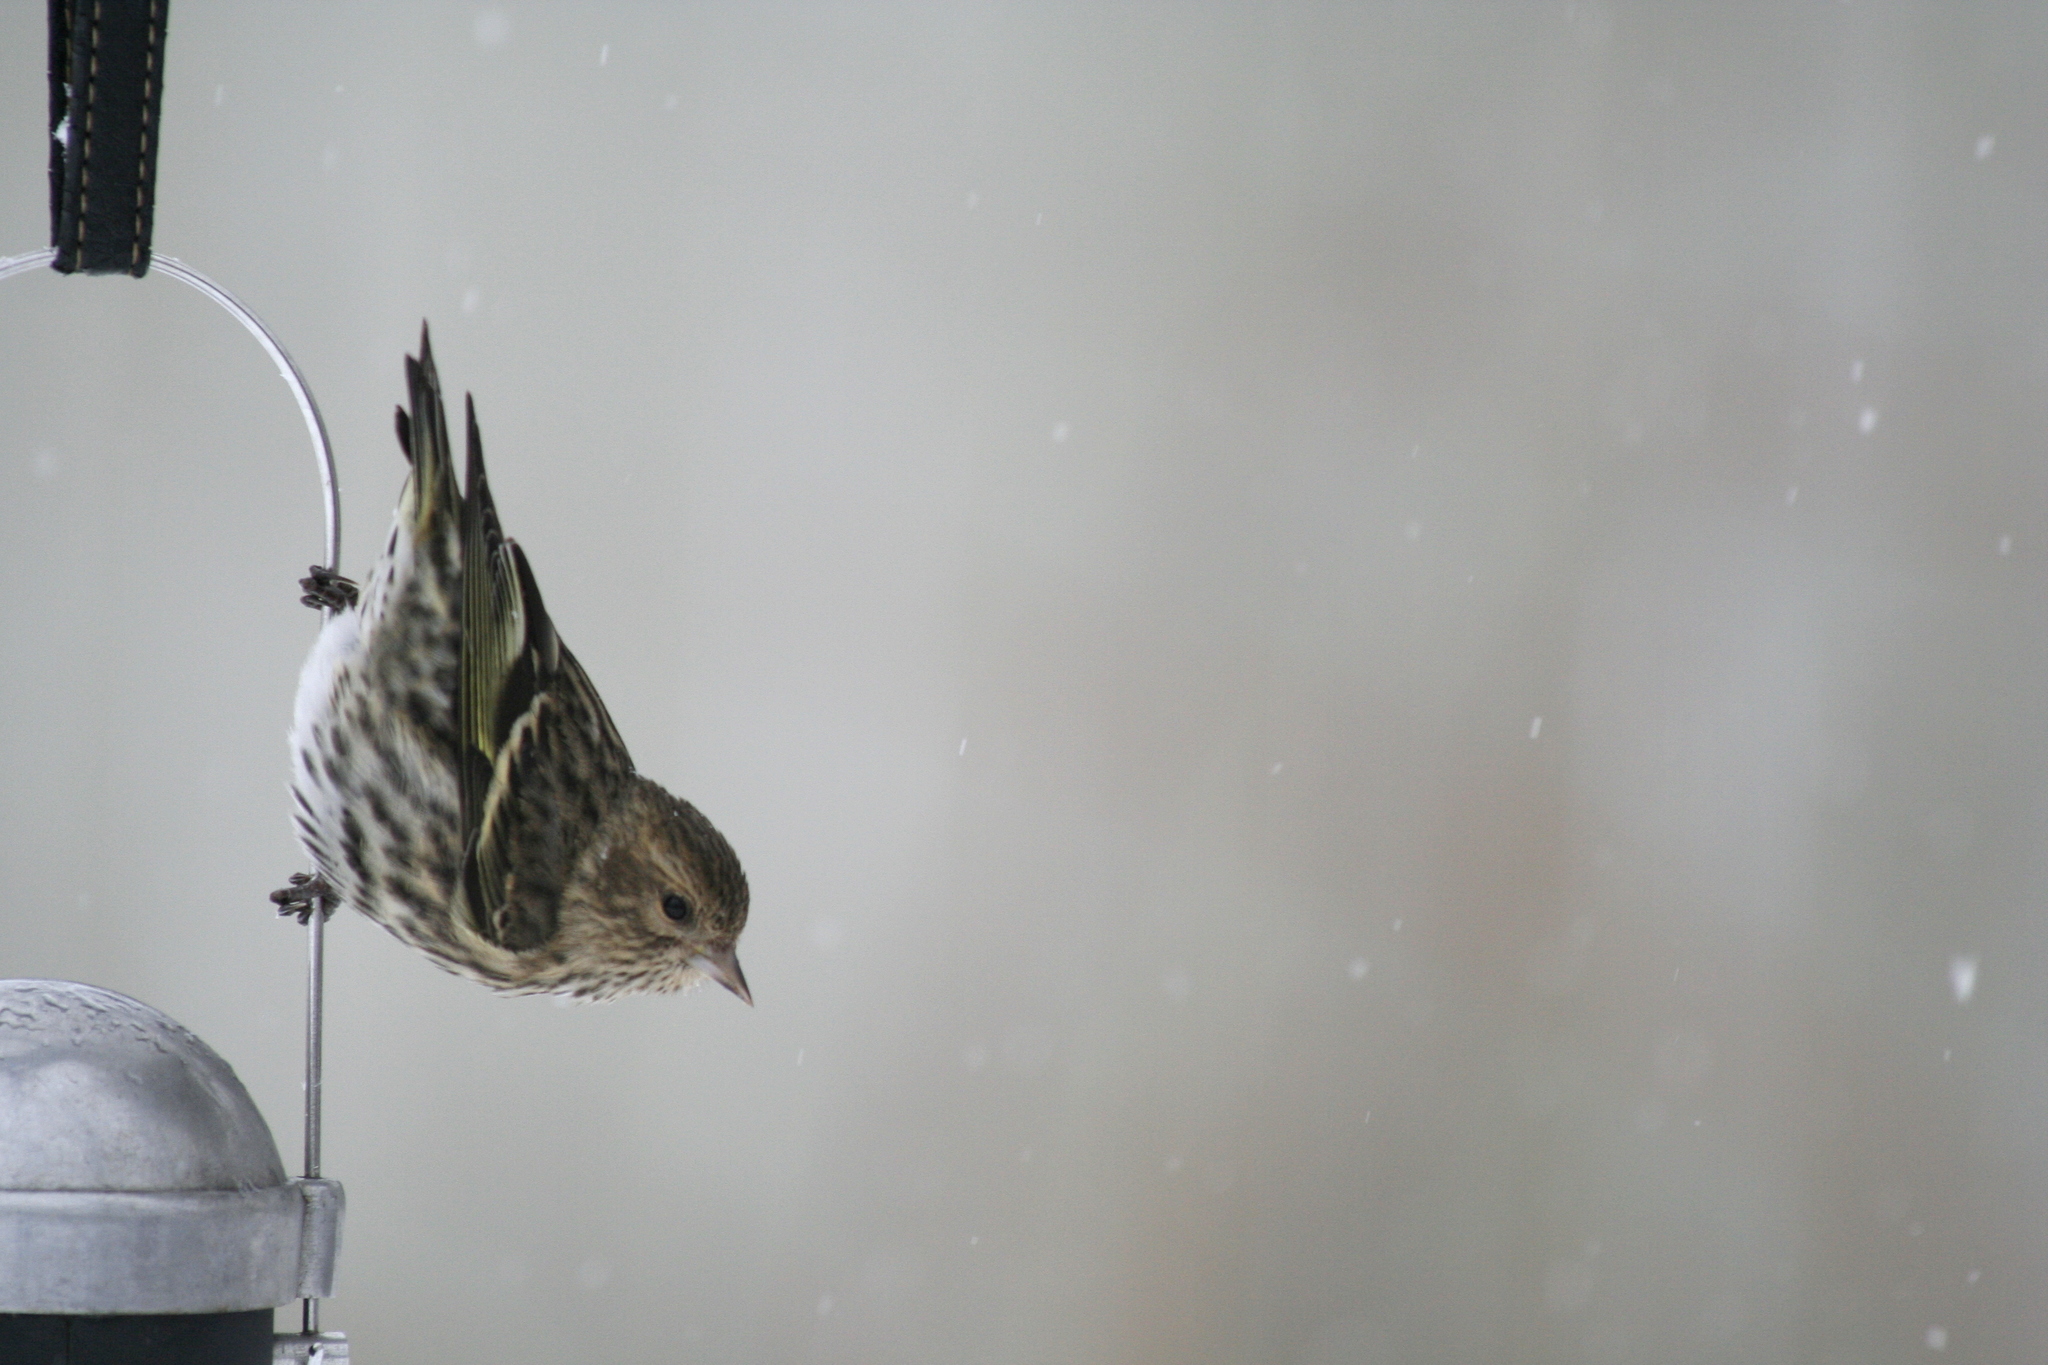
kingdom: Animalia
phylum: Chordata
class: Aves
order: Passeriformes
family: Fringillidae
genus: Spinus
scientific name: Spinus pinus
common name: Pine siskin
